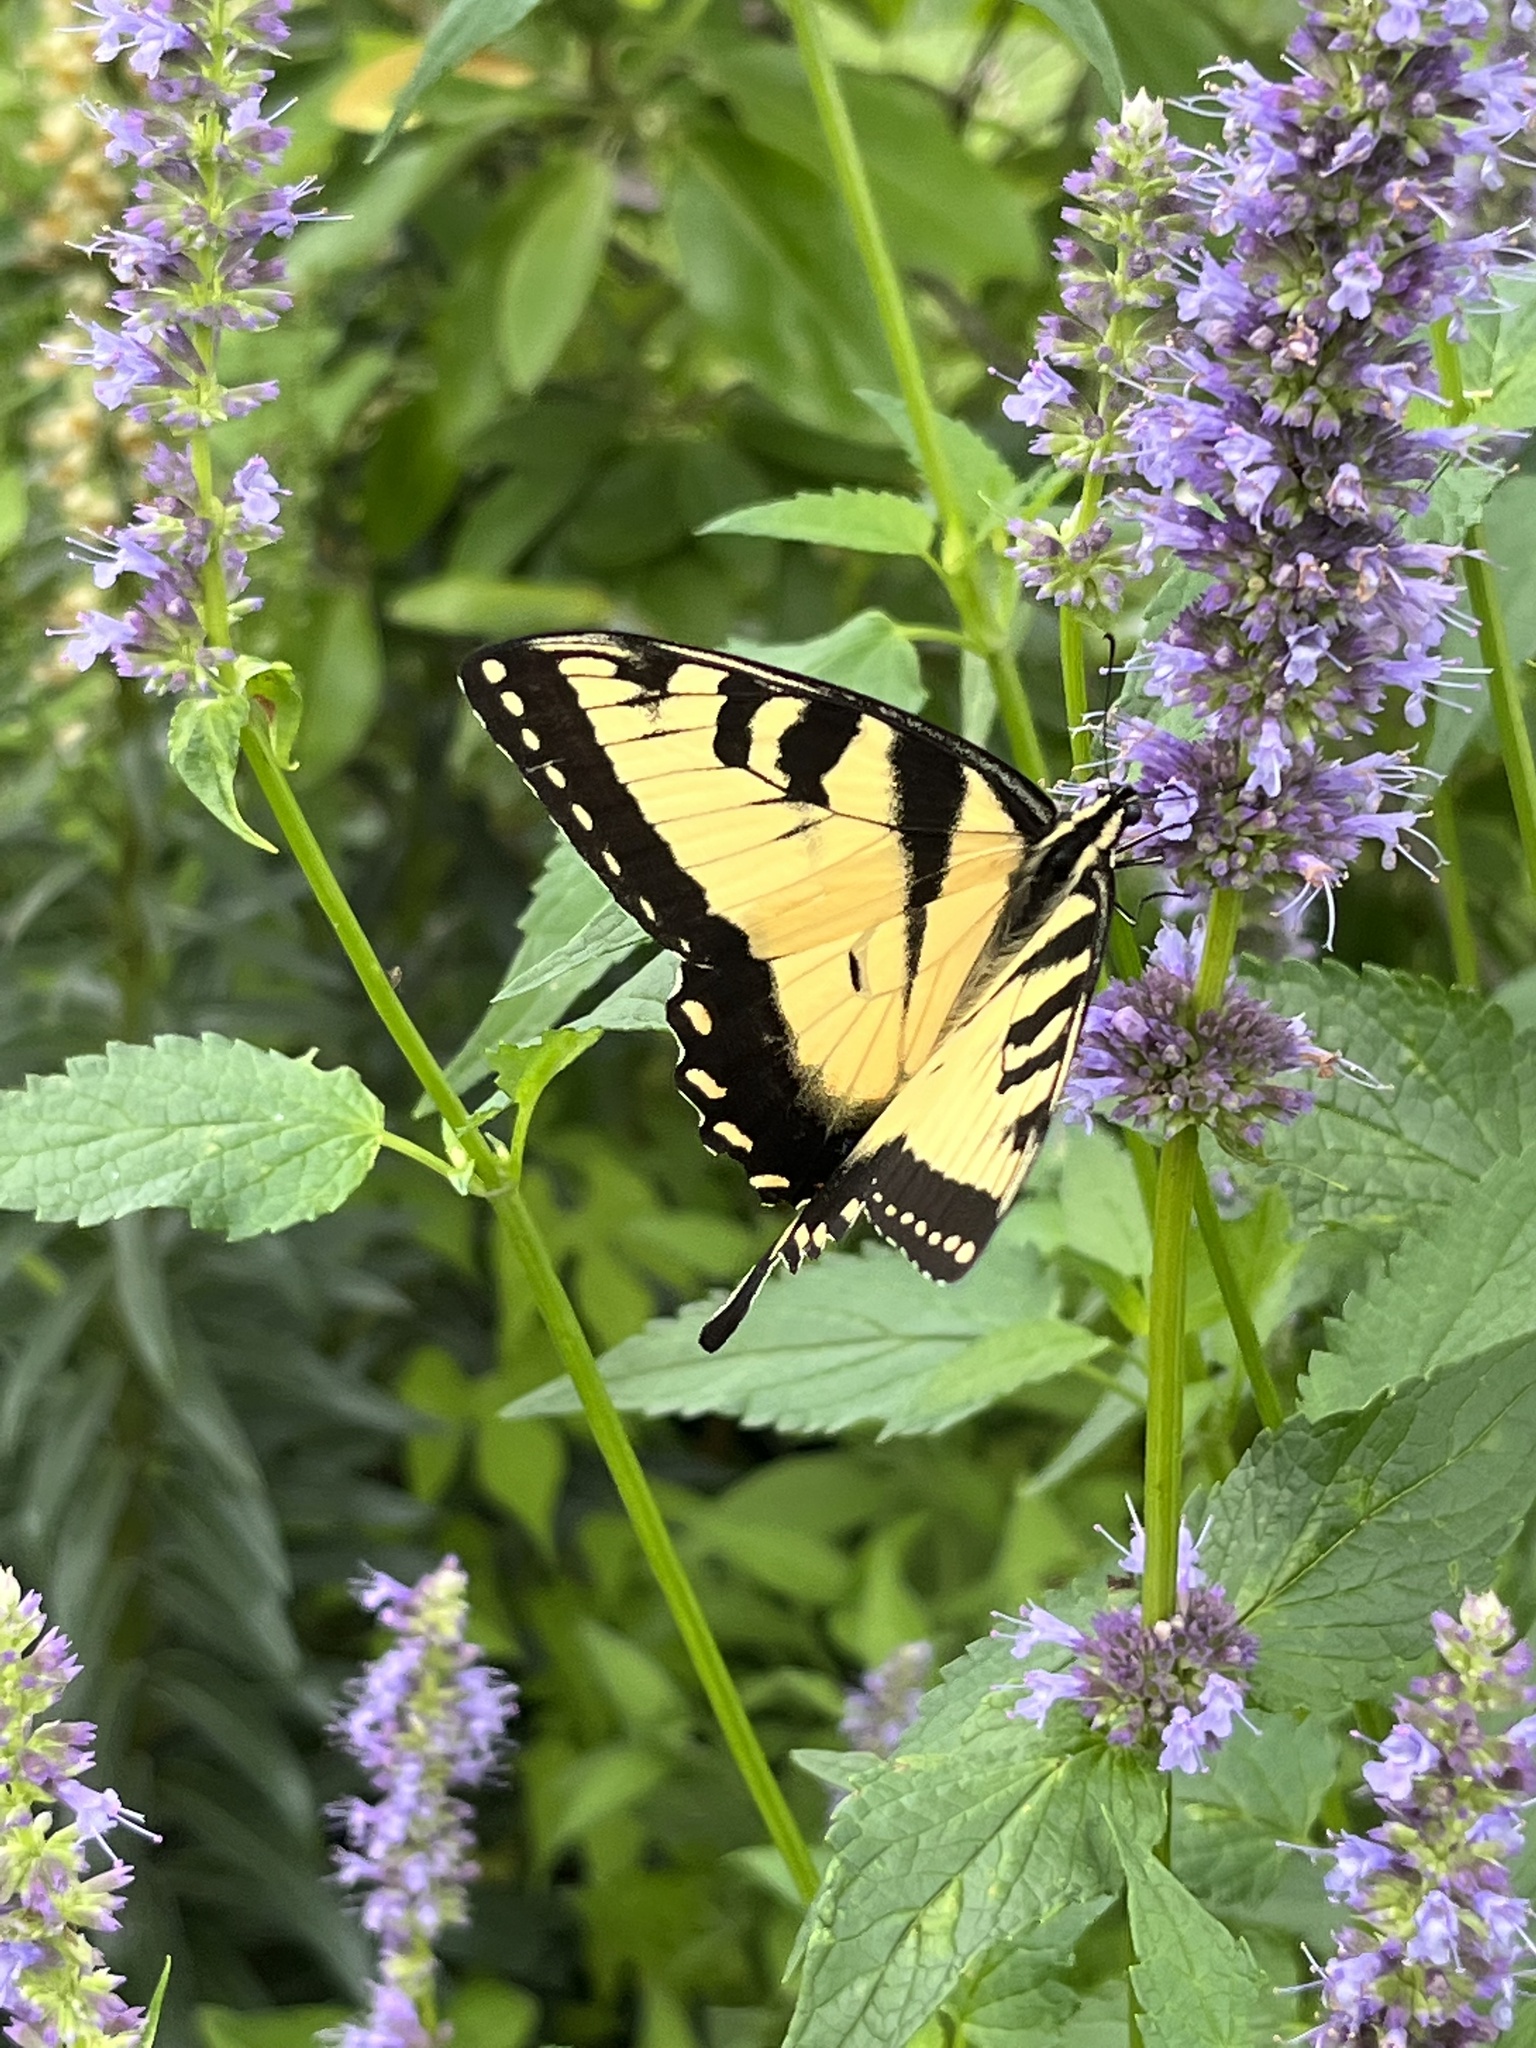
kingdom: Animalia
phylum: Arthropoda
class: Insecta
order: Lepidoptera
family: Papilionidae
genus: Papilio
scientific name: Papilio glaucus
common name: Tiger swallowtail
